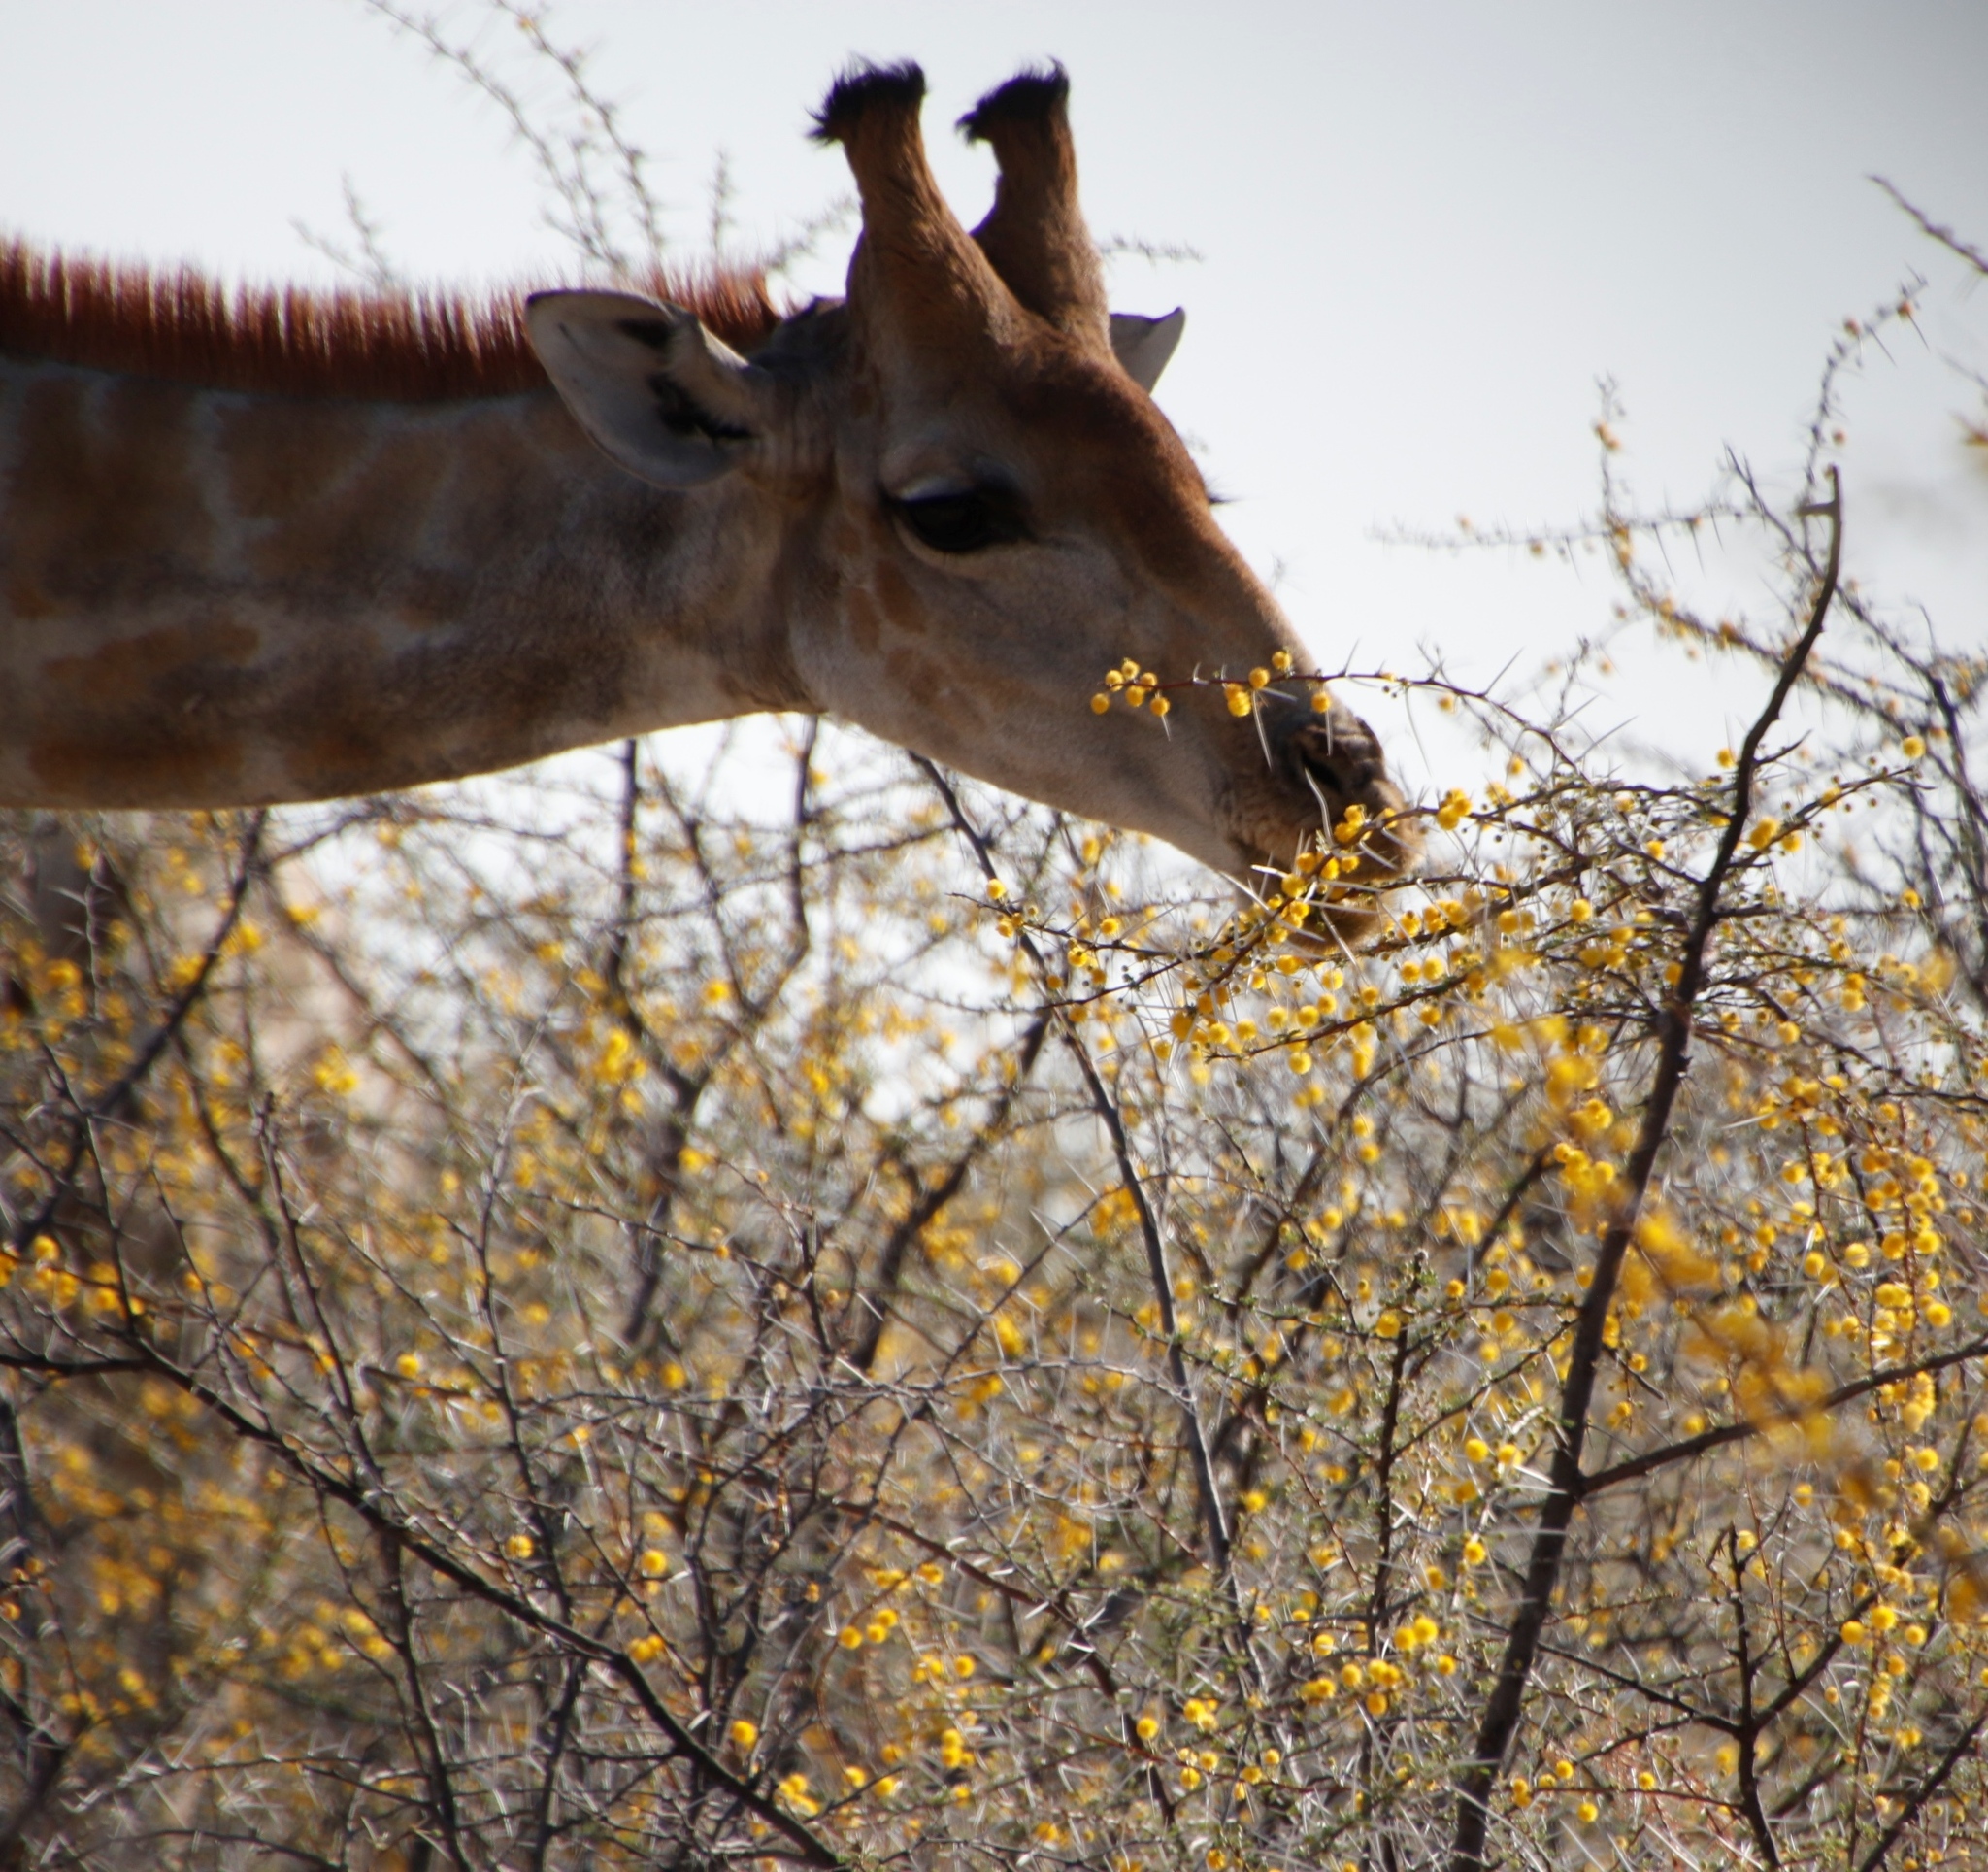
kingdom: Plantae
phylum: Tracheophyta
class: Magnoliopsida
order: Fabales
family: Fabaceae
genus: Vachellia
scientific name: Vachellia nebrownii
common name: Water acacia
